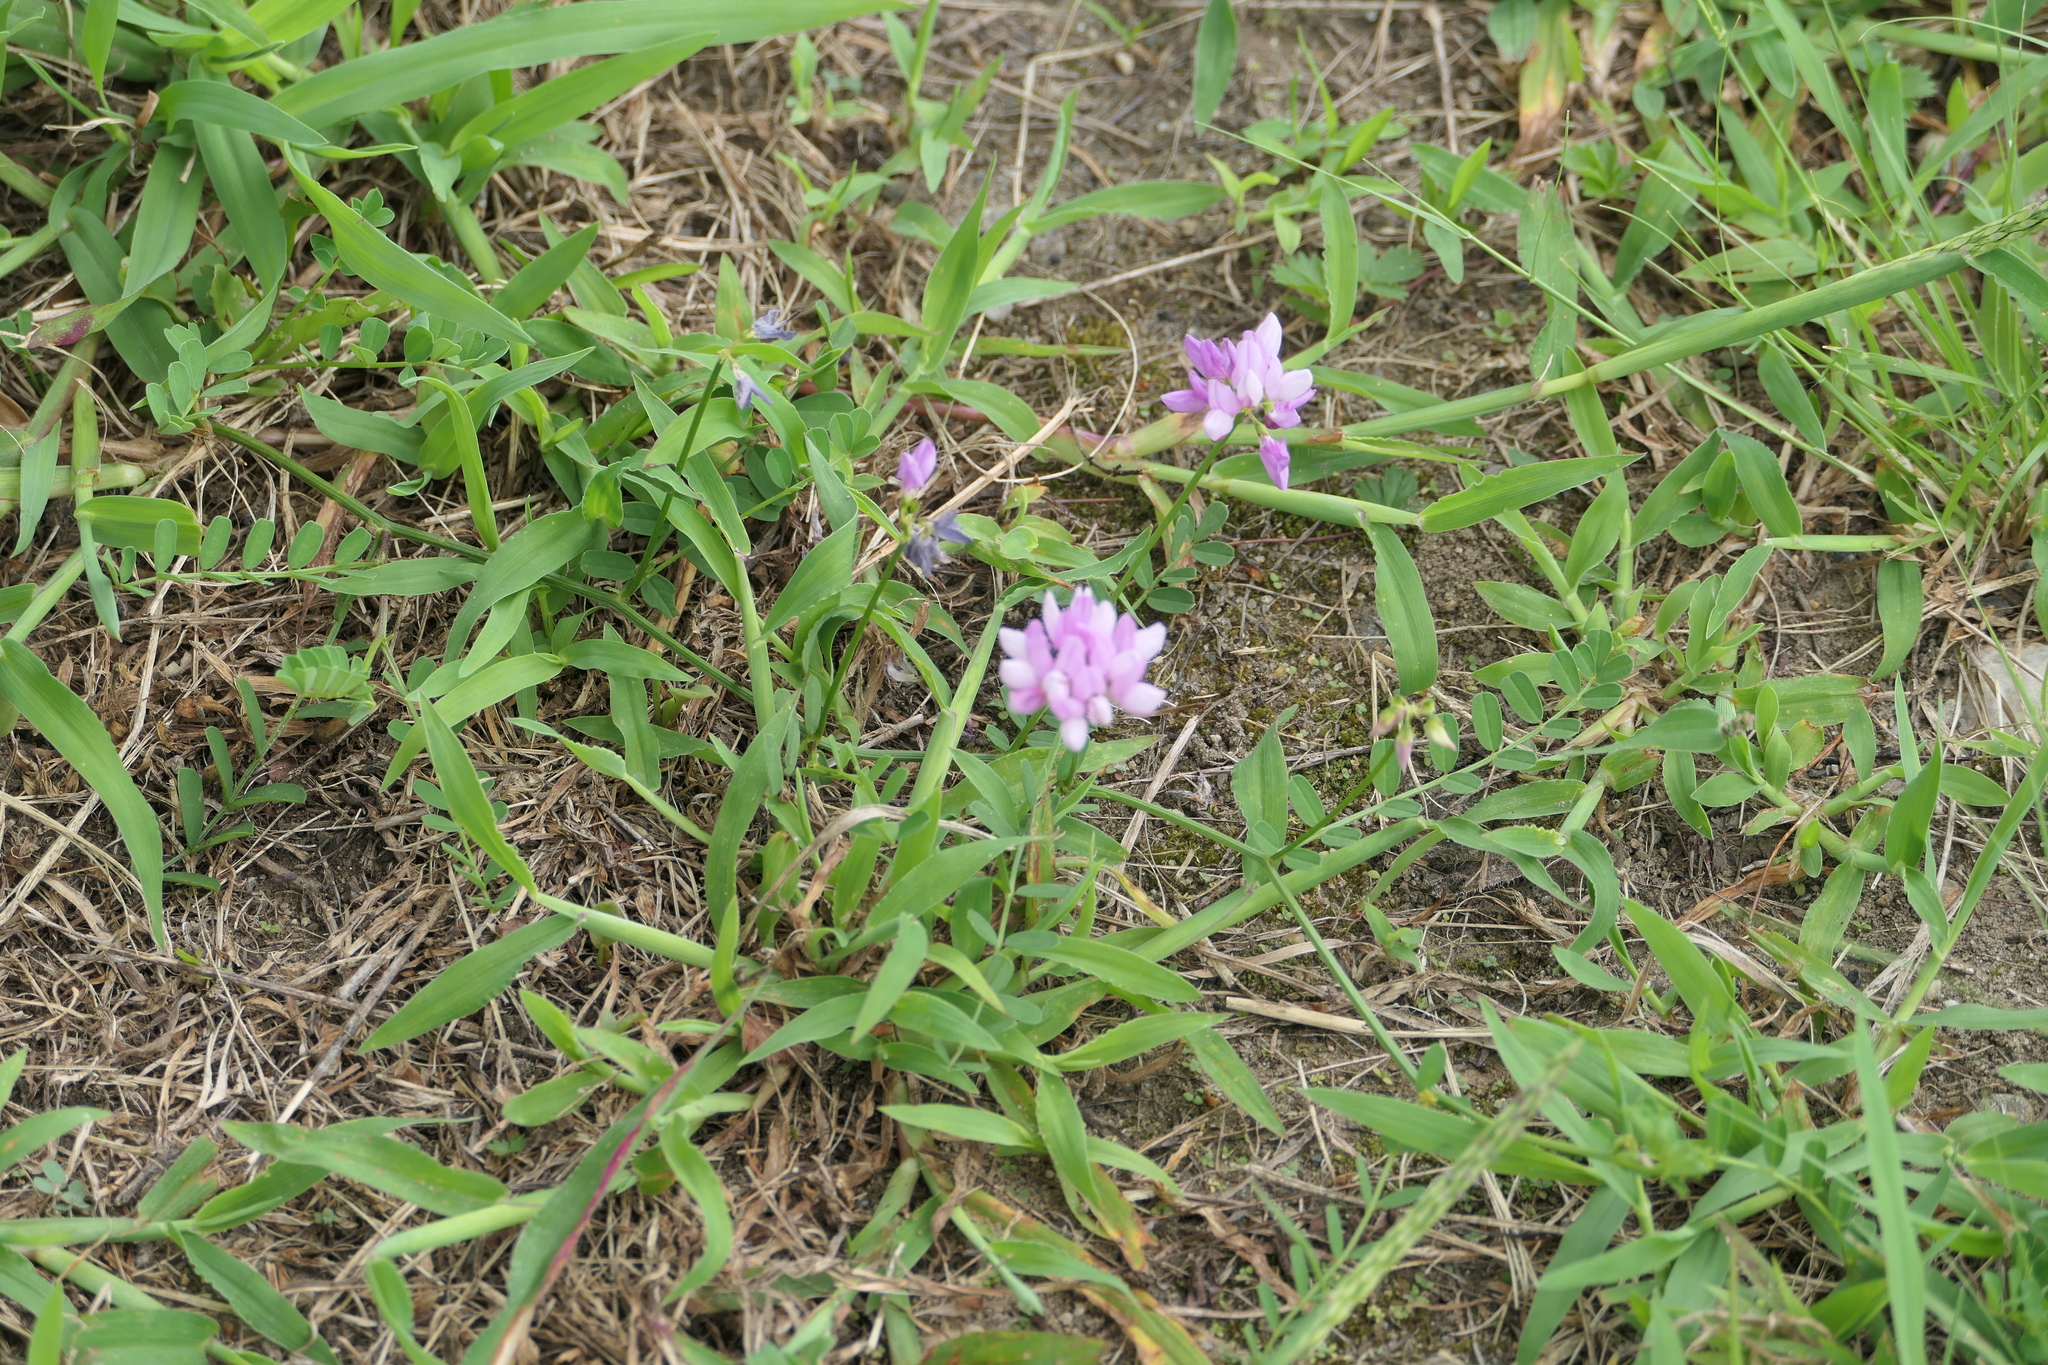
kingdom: Plantae
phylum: Tracheophyta
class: Magnoliopsida
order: Fabales
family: Fabaceae
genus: Coronilla
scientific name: Coronilla varia
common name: Crownvetch
